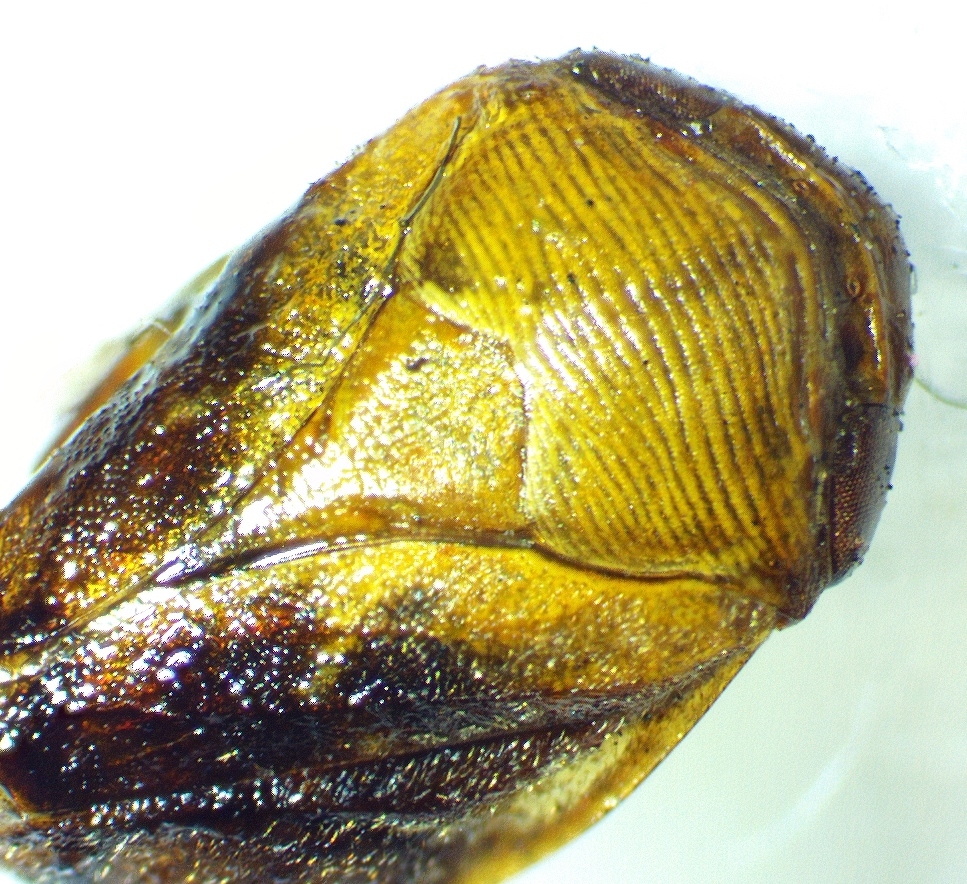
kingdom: Animalia
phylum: Arthropoda
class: Insecta
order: Hemiptera
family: Clastopteridae
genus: Clastoptera
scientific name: Clastoptera achatina
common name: Pecan spittlebug
